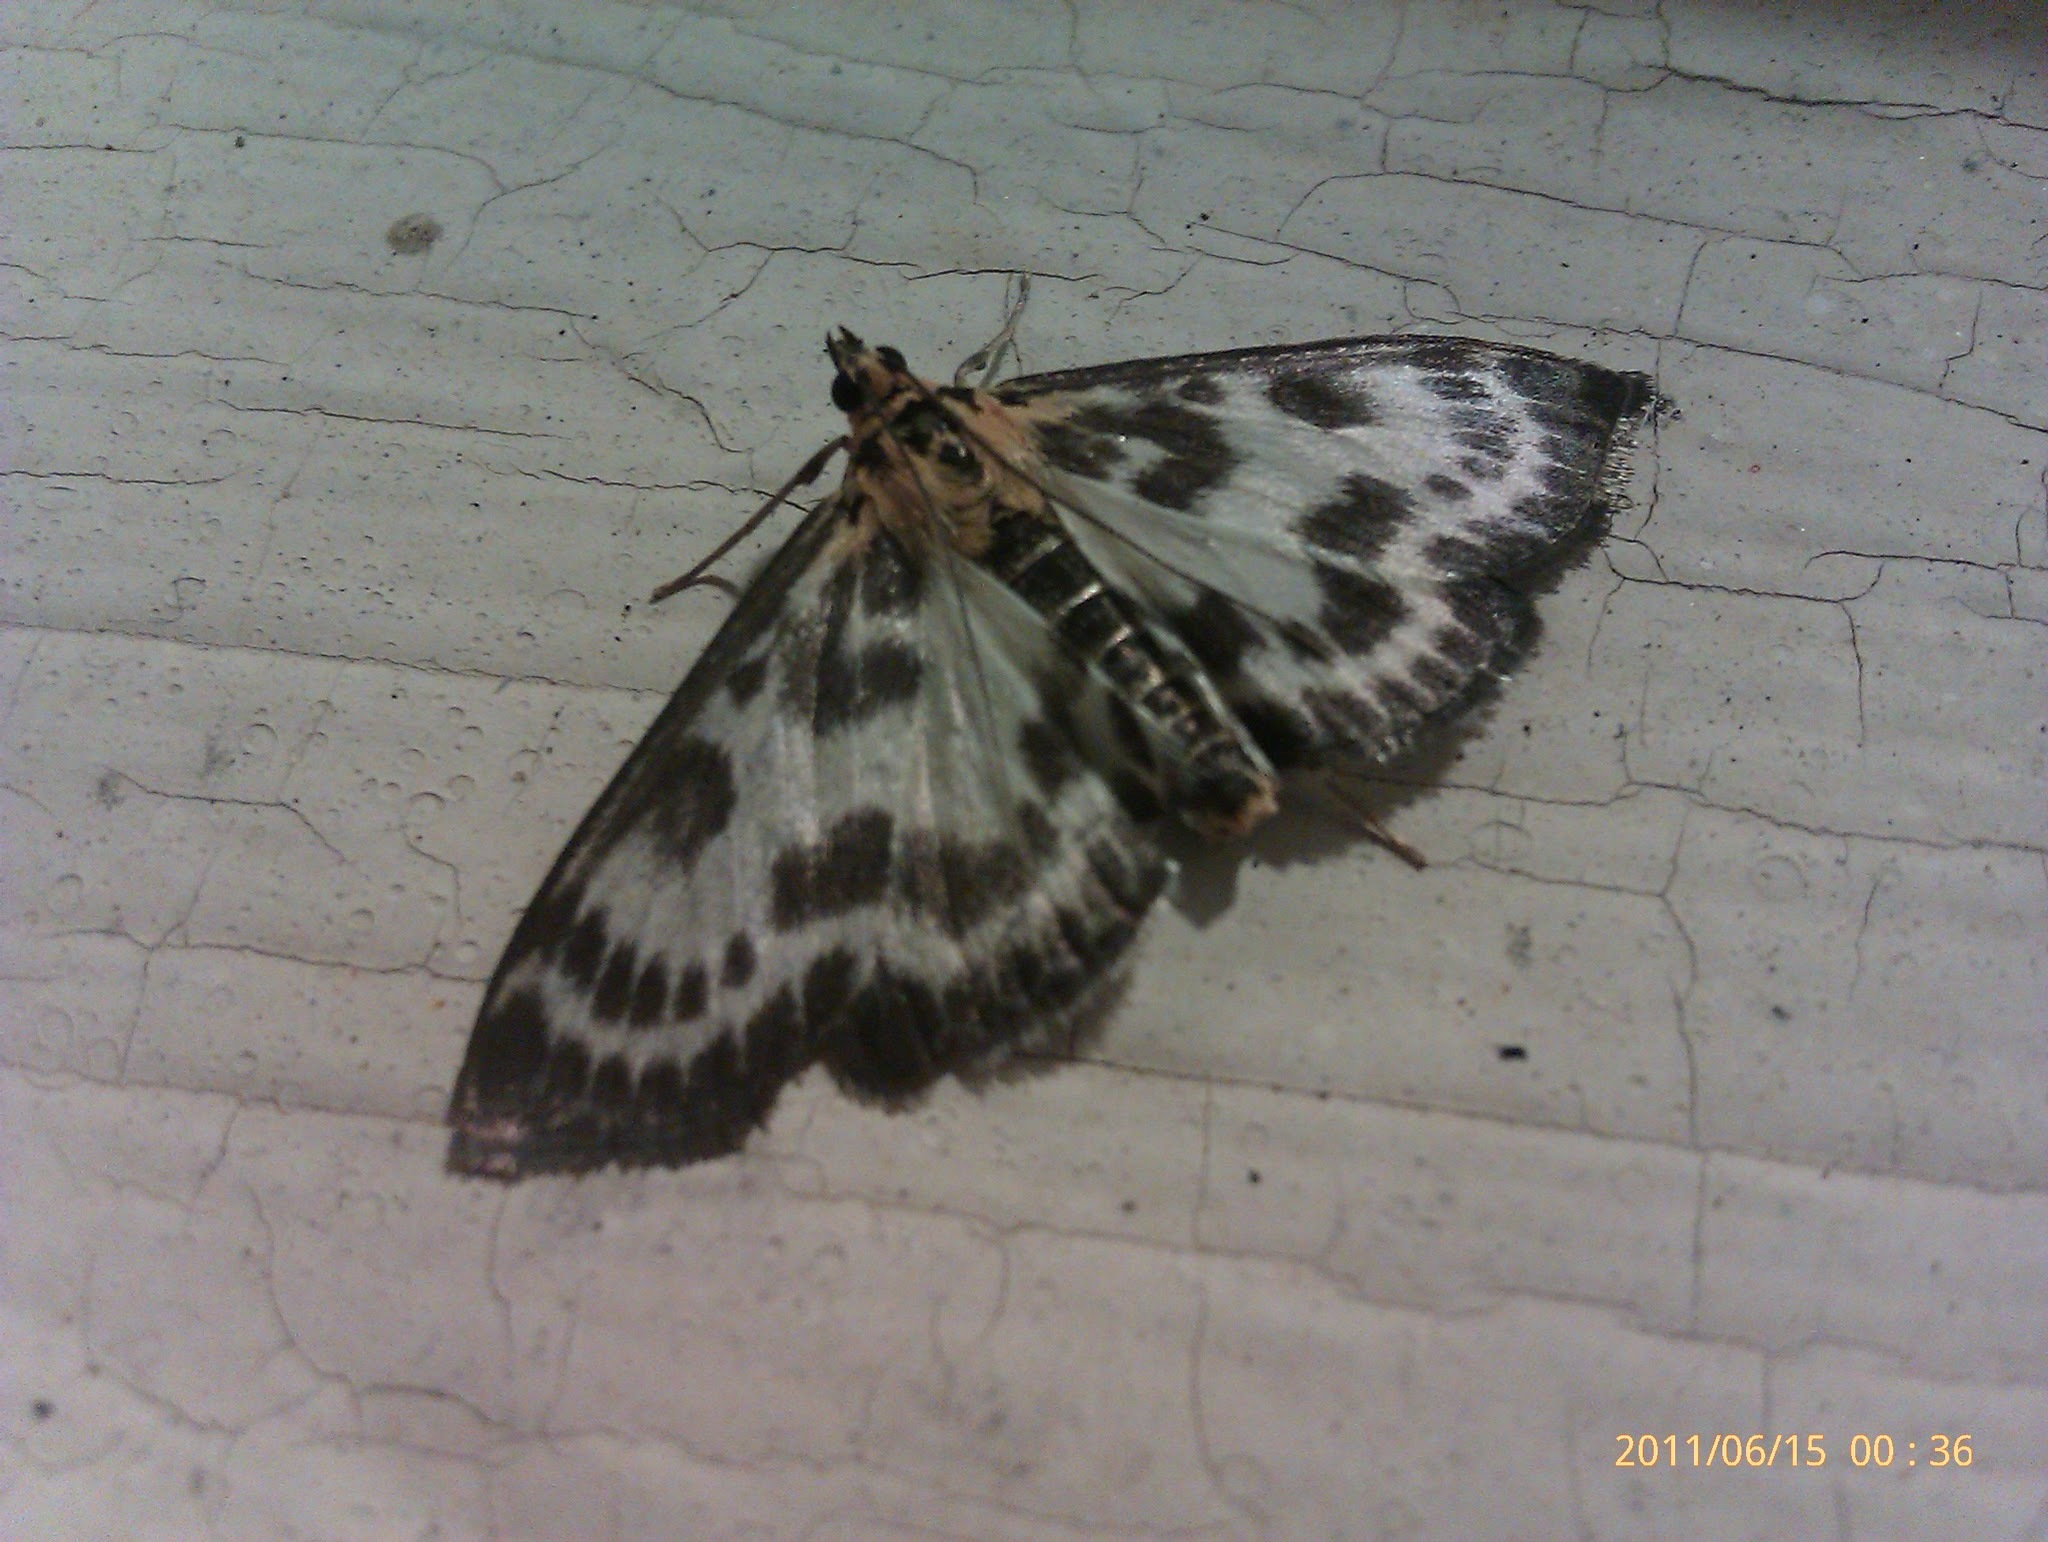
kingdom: Animalia
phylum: Arthropoda
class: Insecta
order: Lepidoptera
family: Crambidae
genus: Anania
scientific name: Anania hortulata
